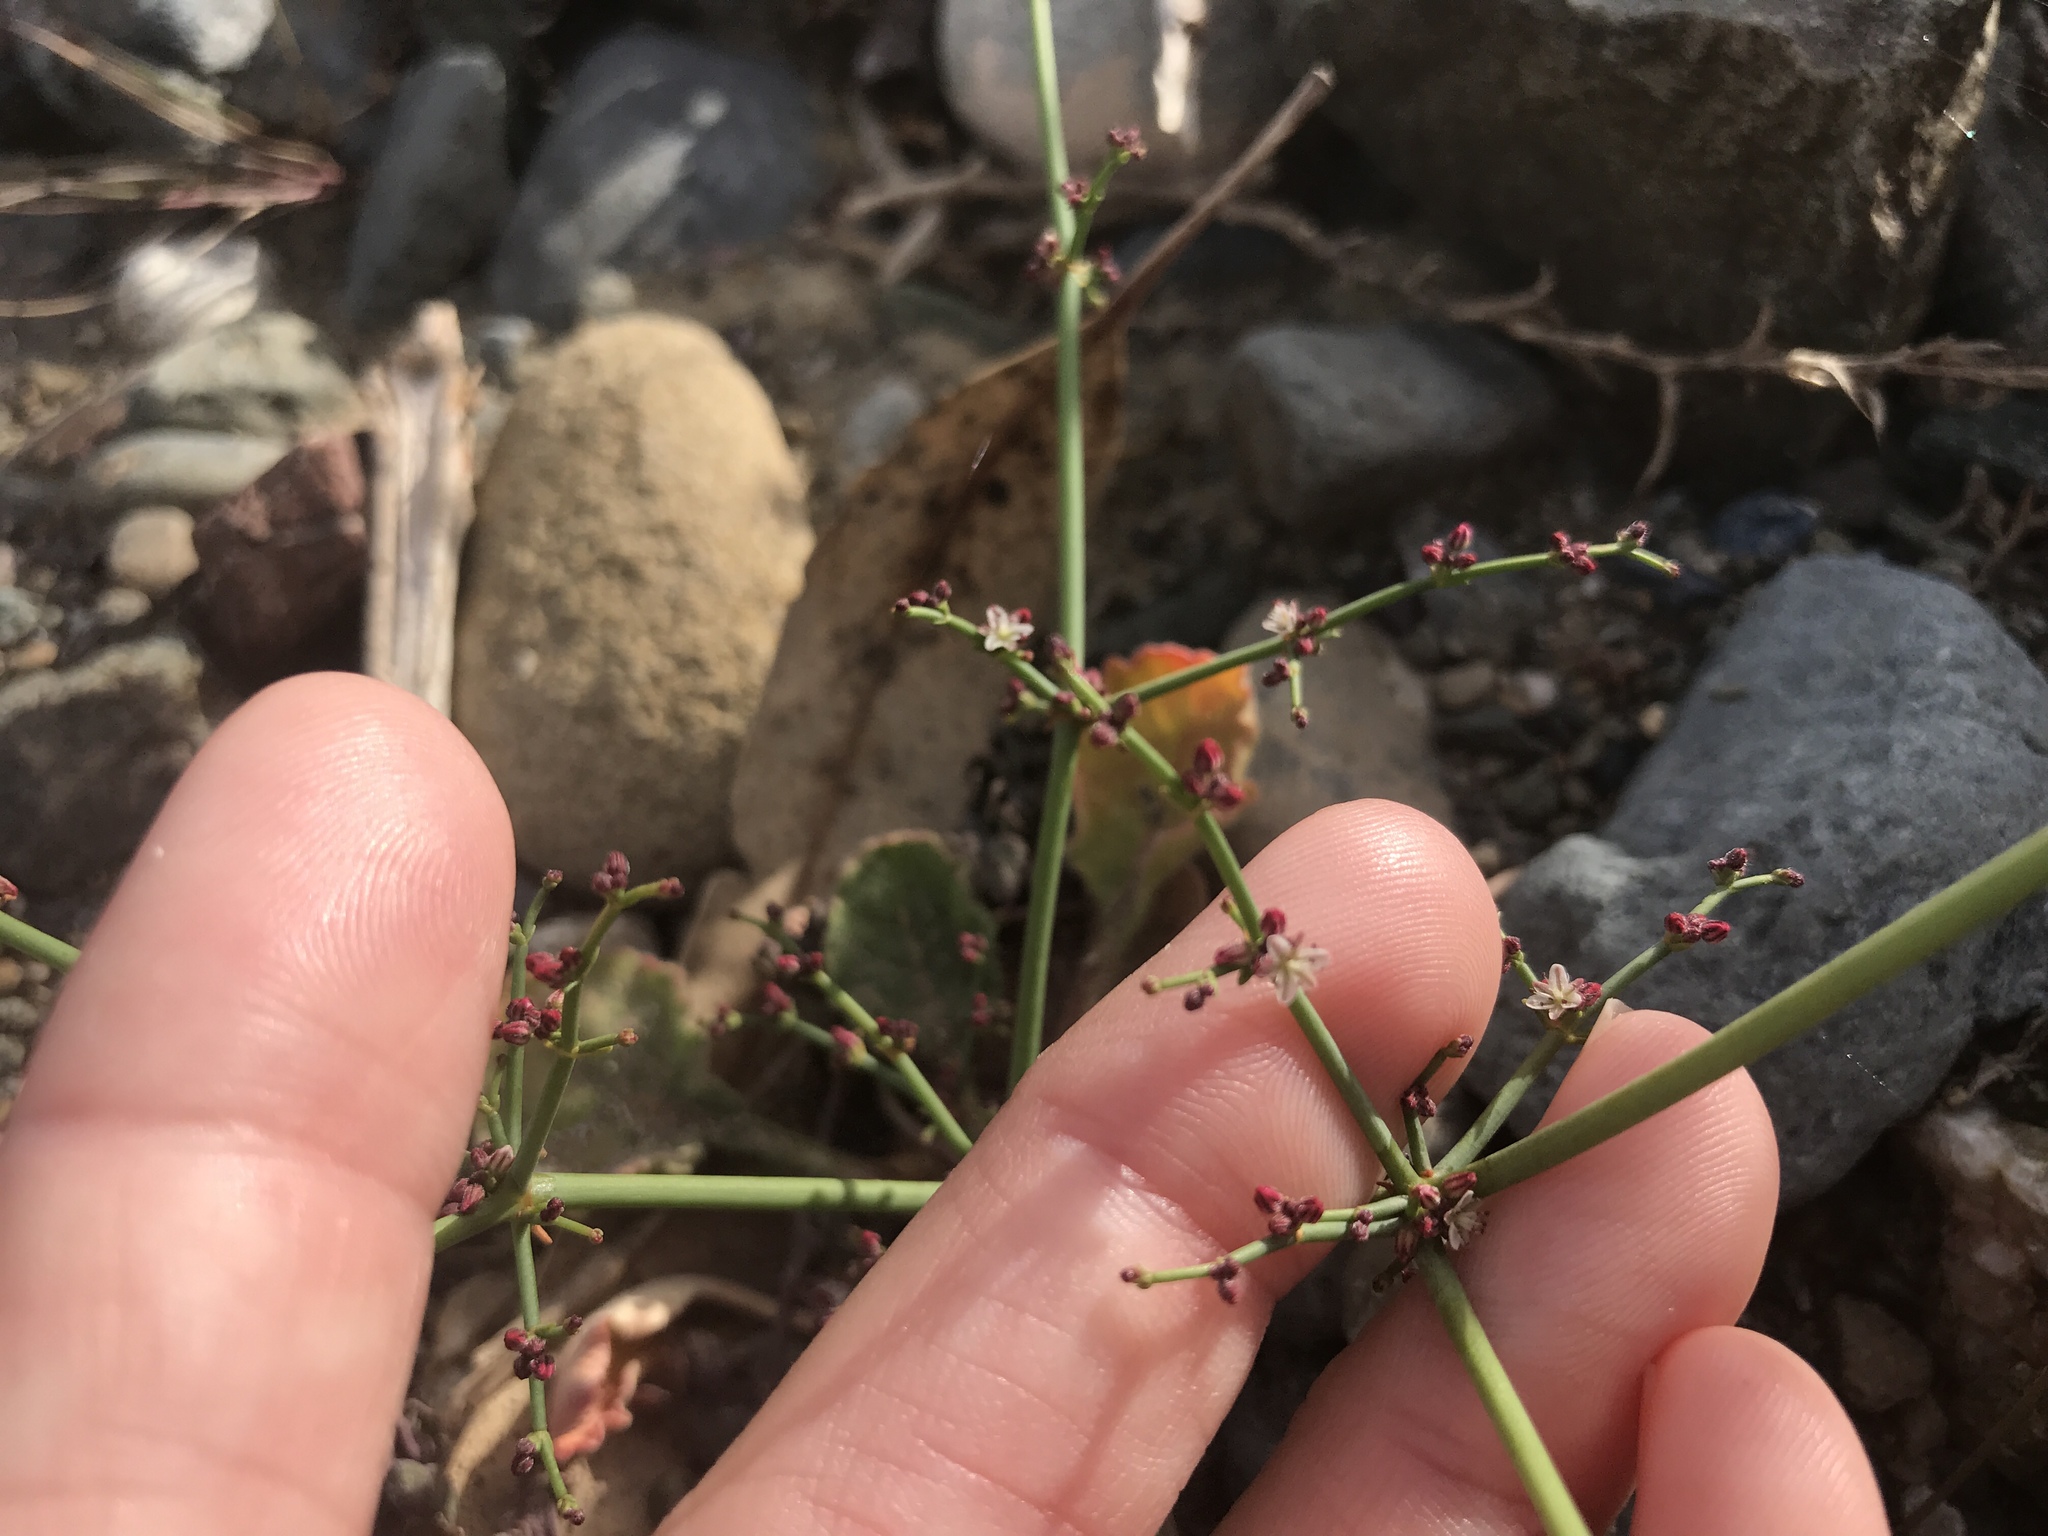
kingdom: Plantae
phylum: Tracheophyta
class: Magnoliopsida
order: Caryophyllales
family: Polygonaceae
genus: Eriogonum
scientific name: Eriogonum intricatum
